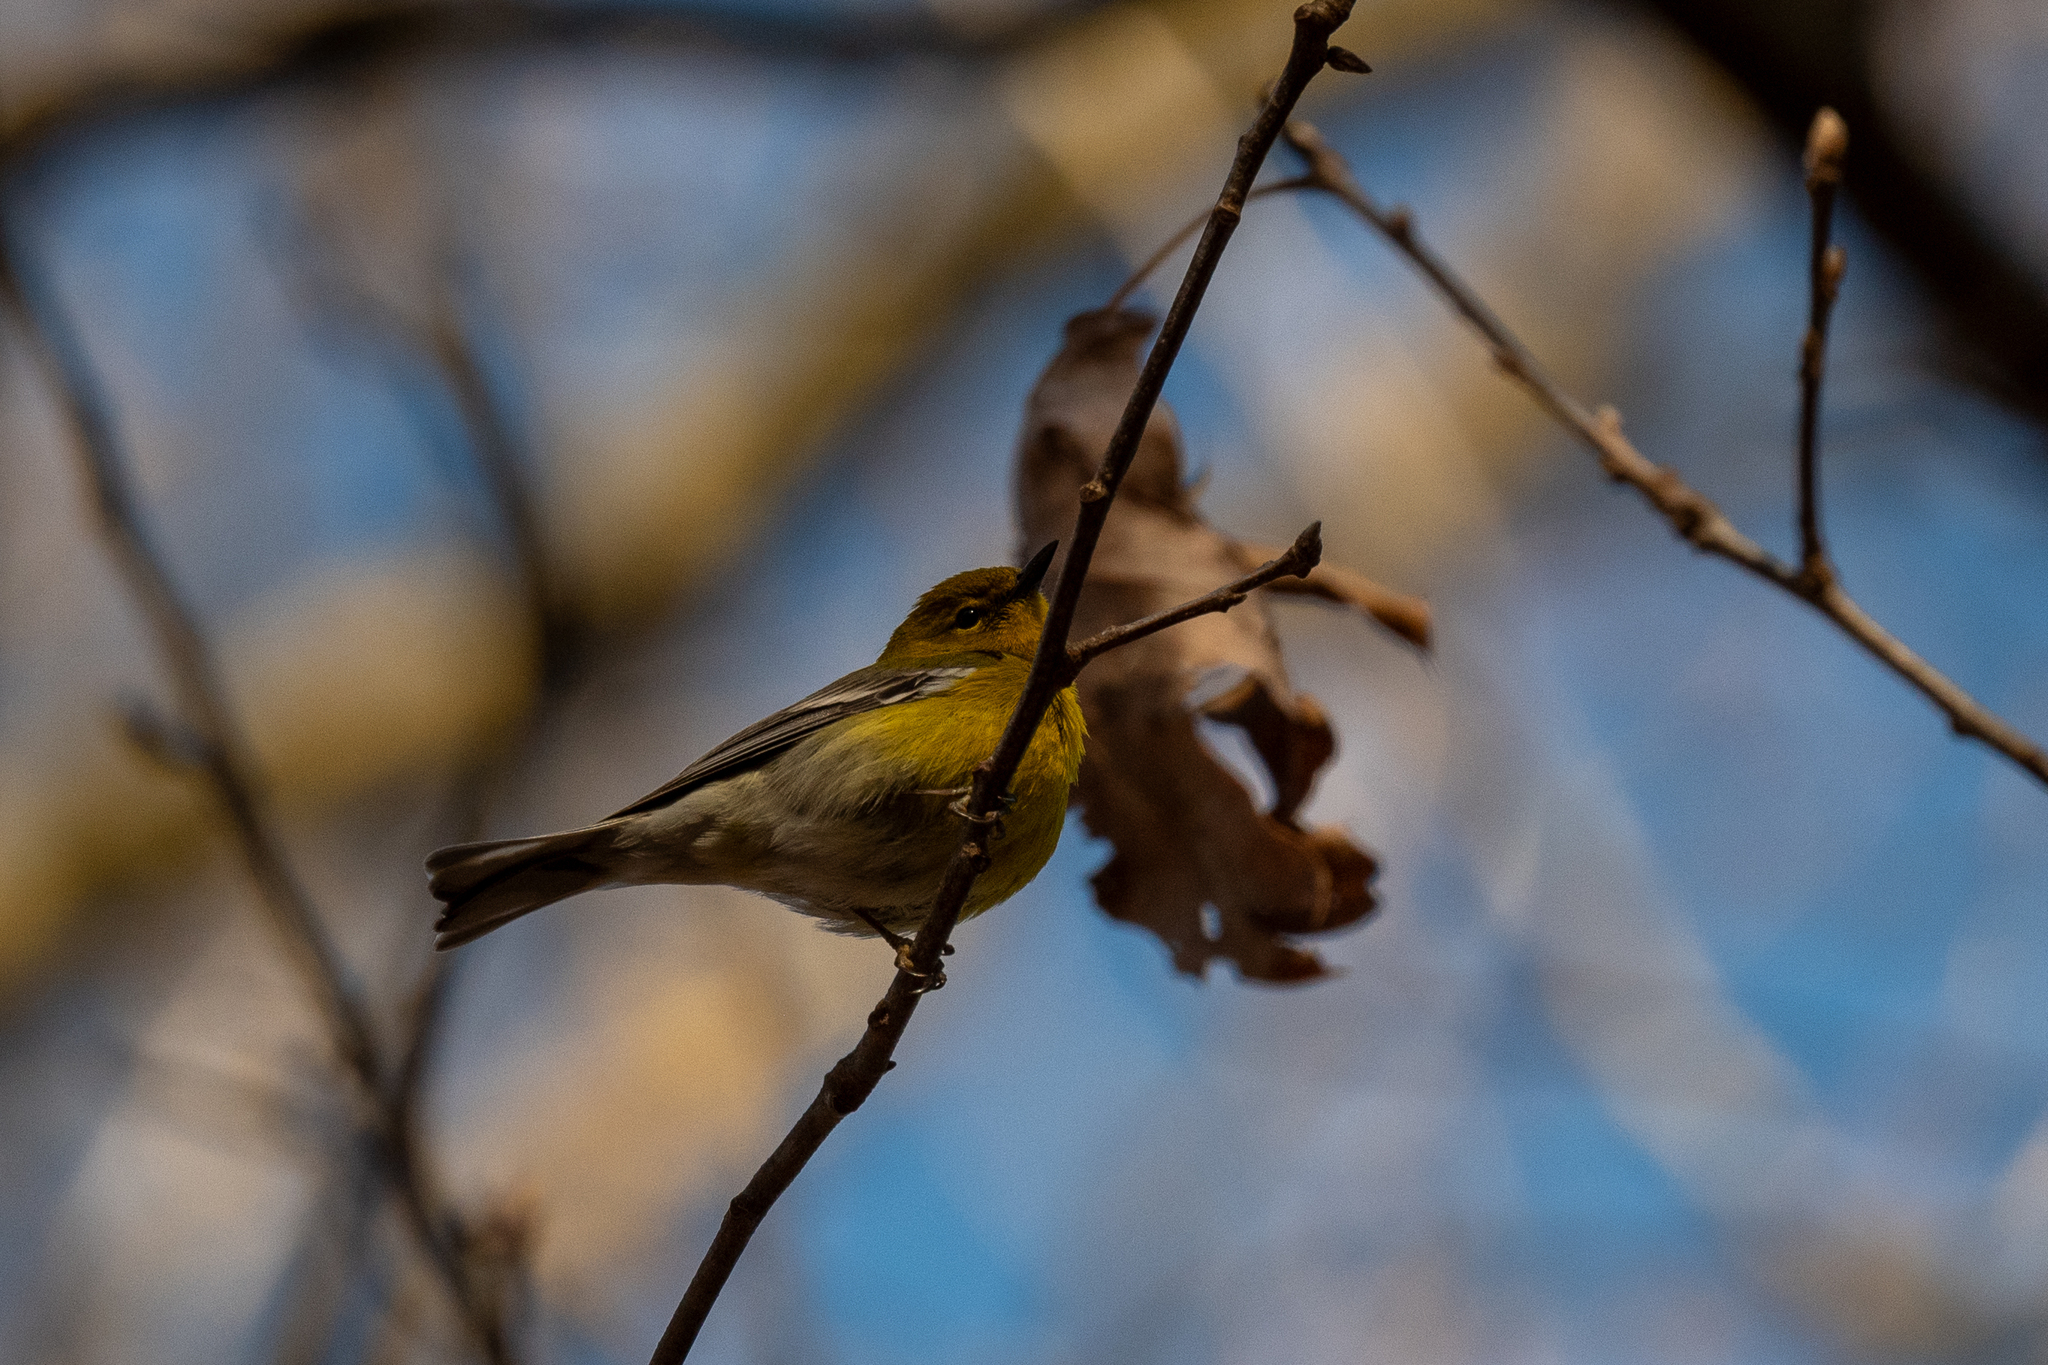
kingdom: Animalia
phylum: Chordata
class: Aves
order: Passeriformes
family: Parulidae
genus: Setophaga
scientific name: Setophaga pinus
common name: Pine warbler
